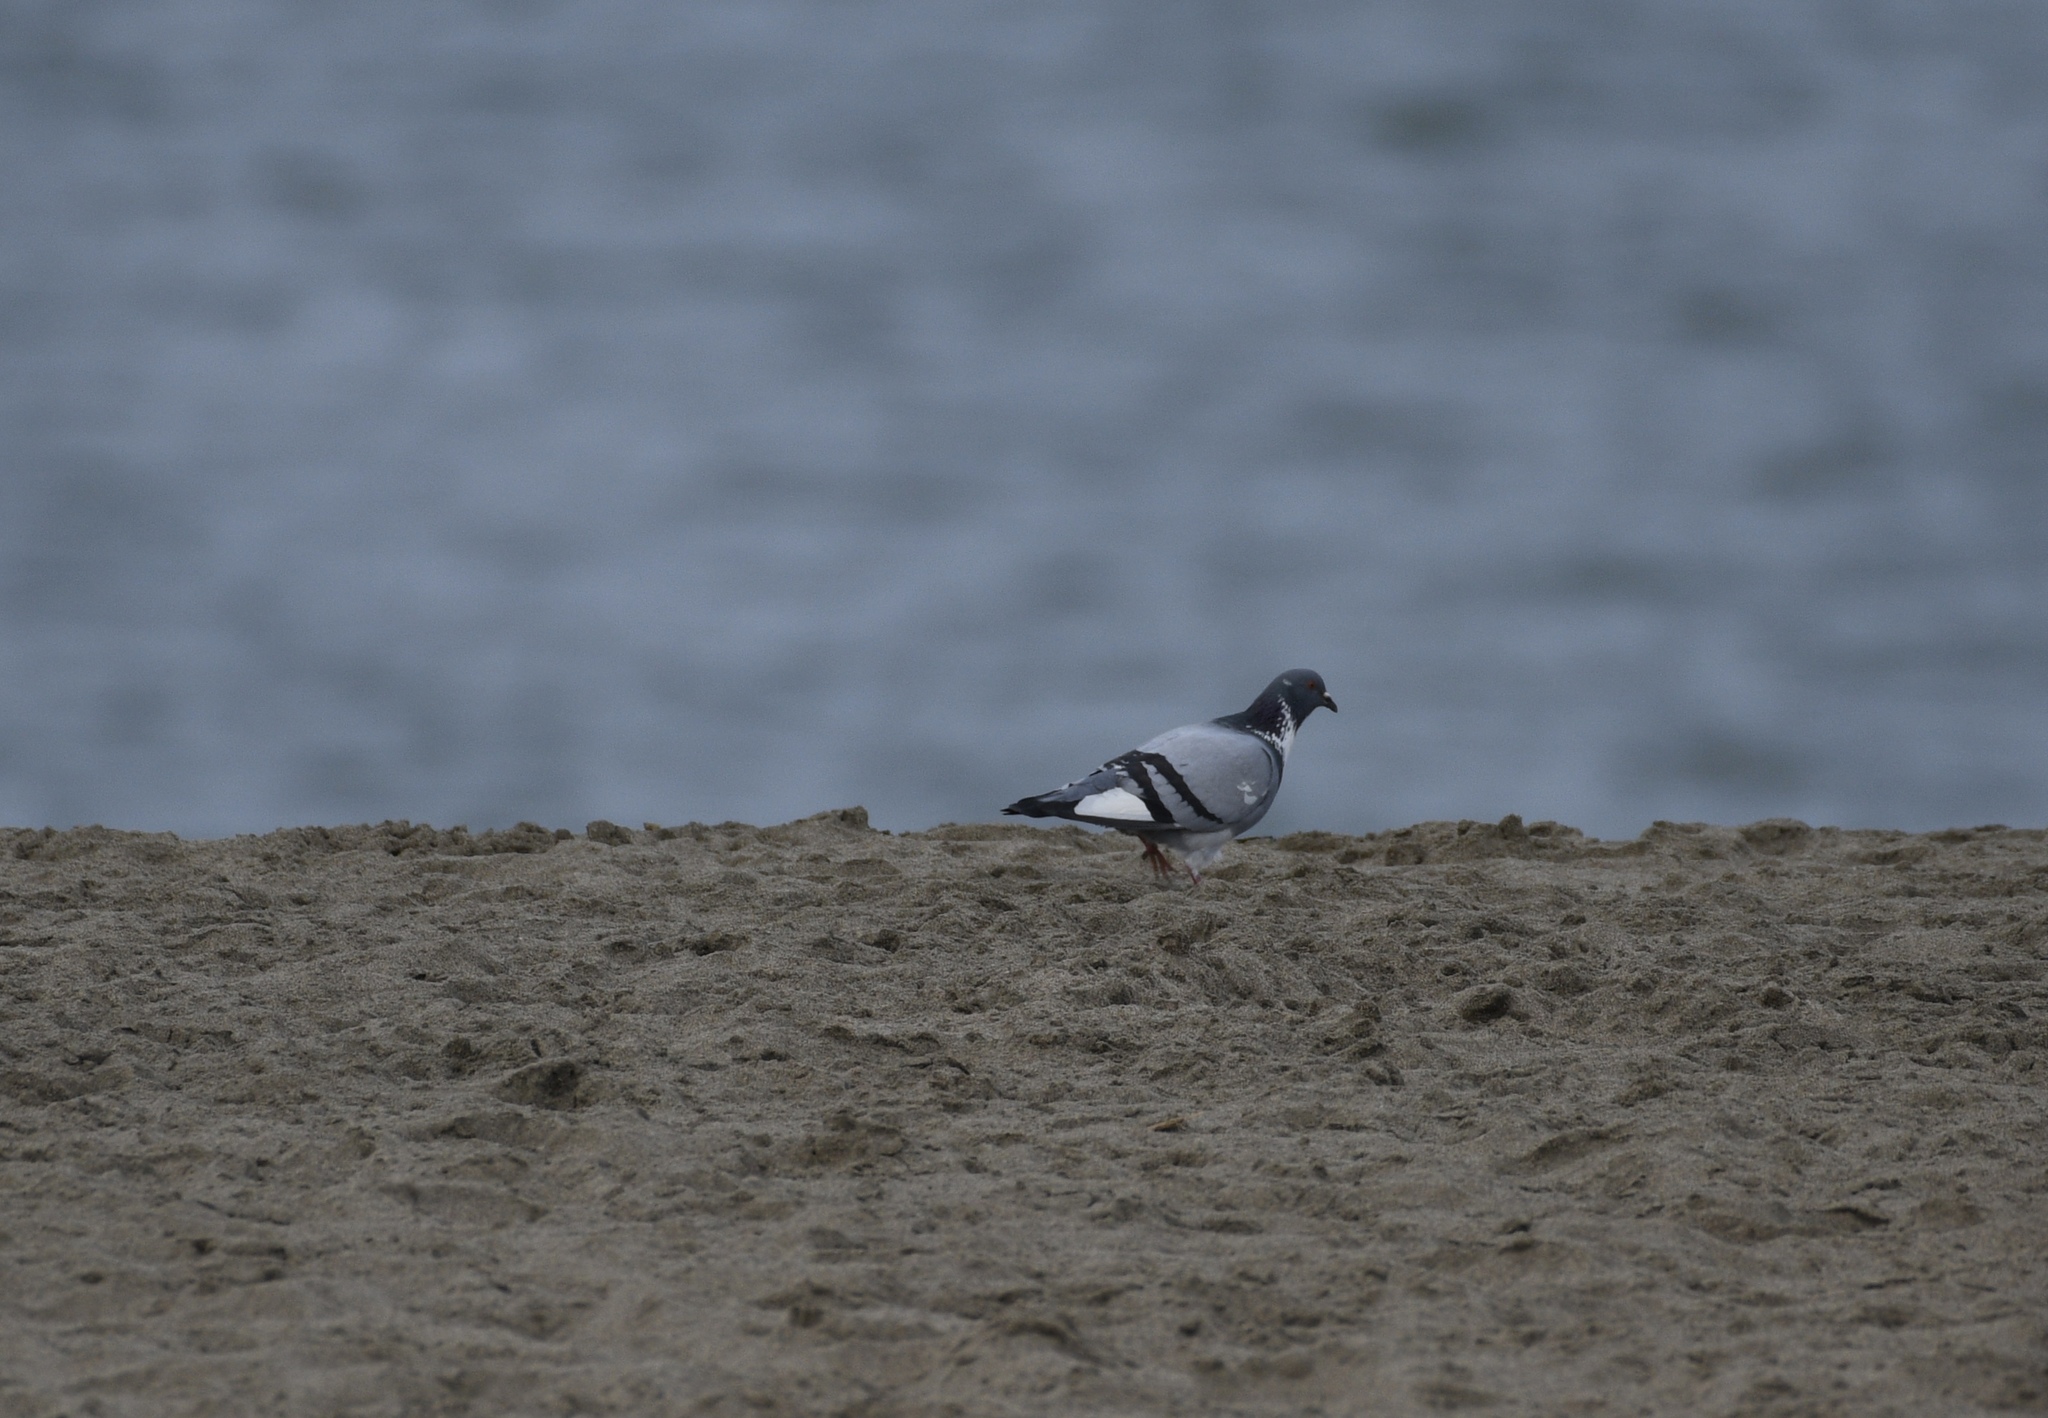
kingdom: Animalia
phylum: Chordata
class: Aves
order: Columbiformes
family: Columbidae
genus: Columba
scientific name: Columba livia
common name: Rock pigeon
